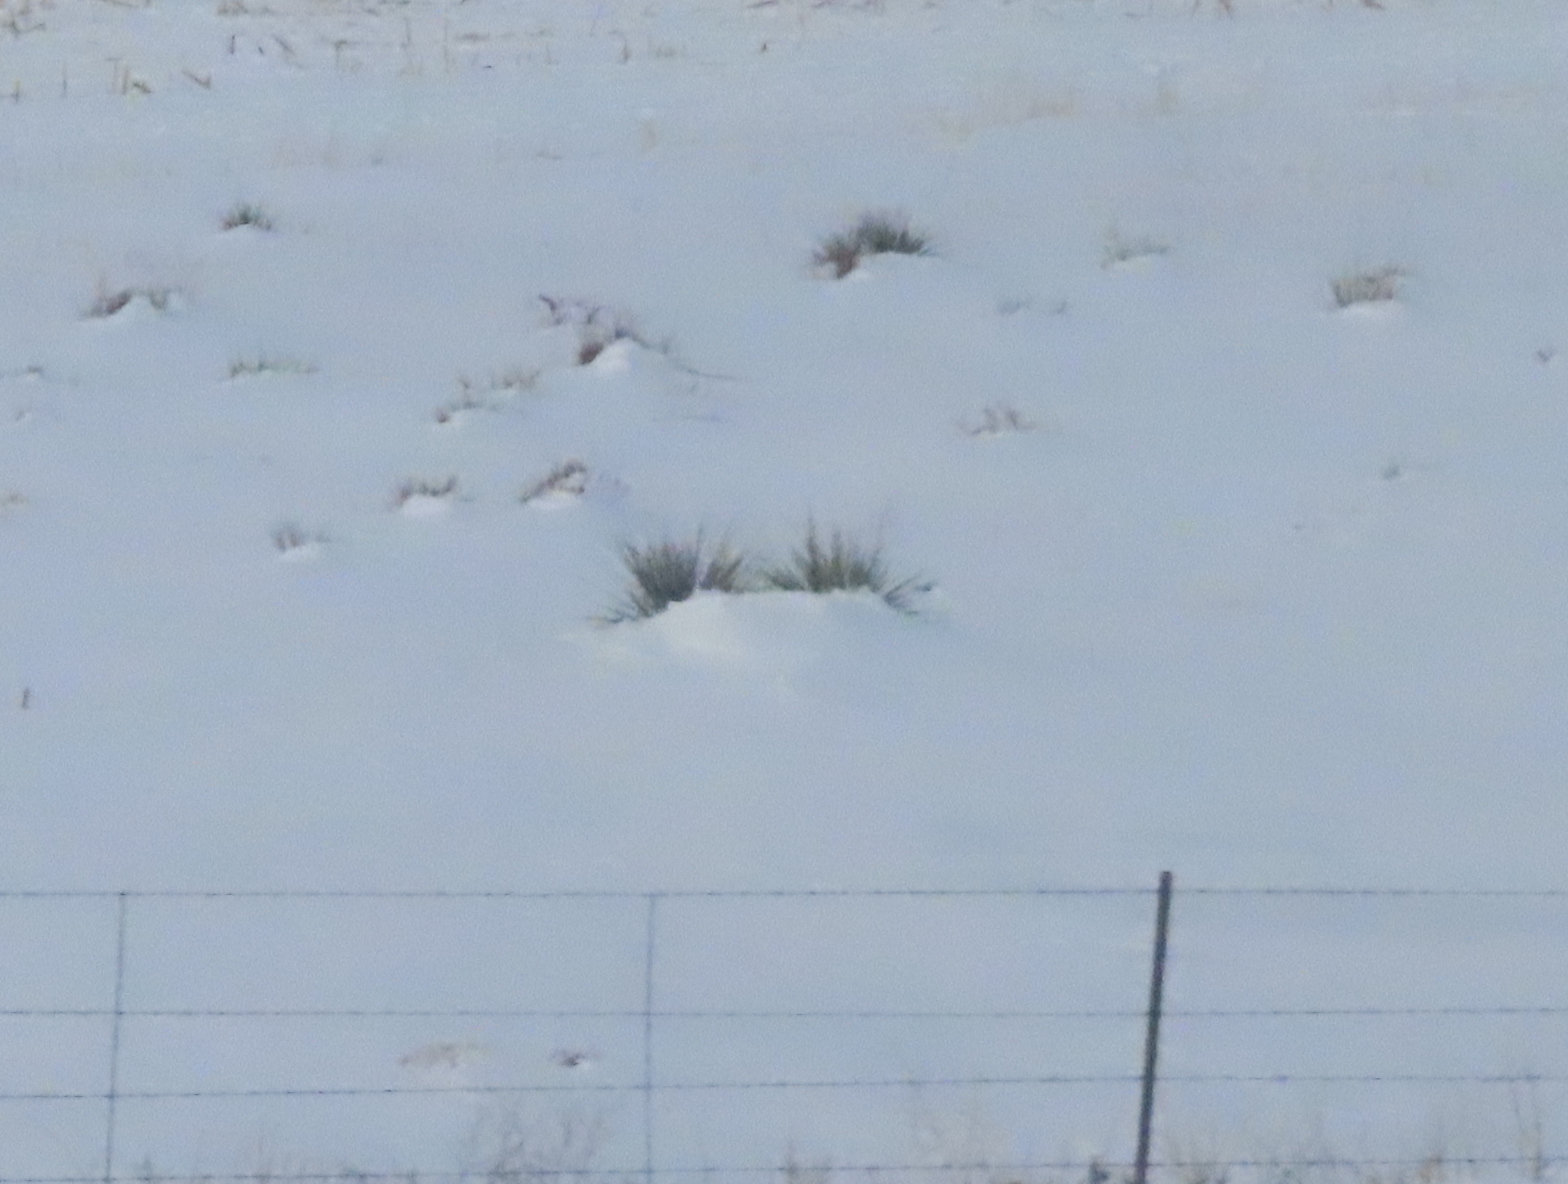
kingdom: Plantae
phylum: Tracheophyta
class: Liliopsida
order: Asparagales
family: Asparagaceae
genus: Yucca
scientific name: Yucca glauca
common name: Great plains yucca
